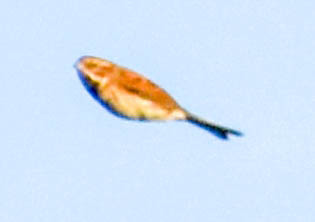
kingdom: Animalia
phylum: Chordata
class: Aves
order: Passeriformes
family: Emberizidae
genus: Emberiza
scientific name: Emberiza schoeniclus
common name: Reed bunting
